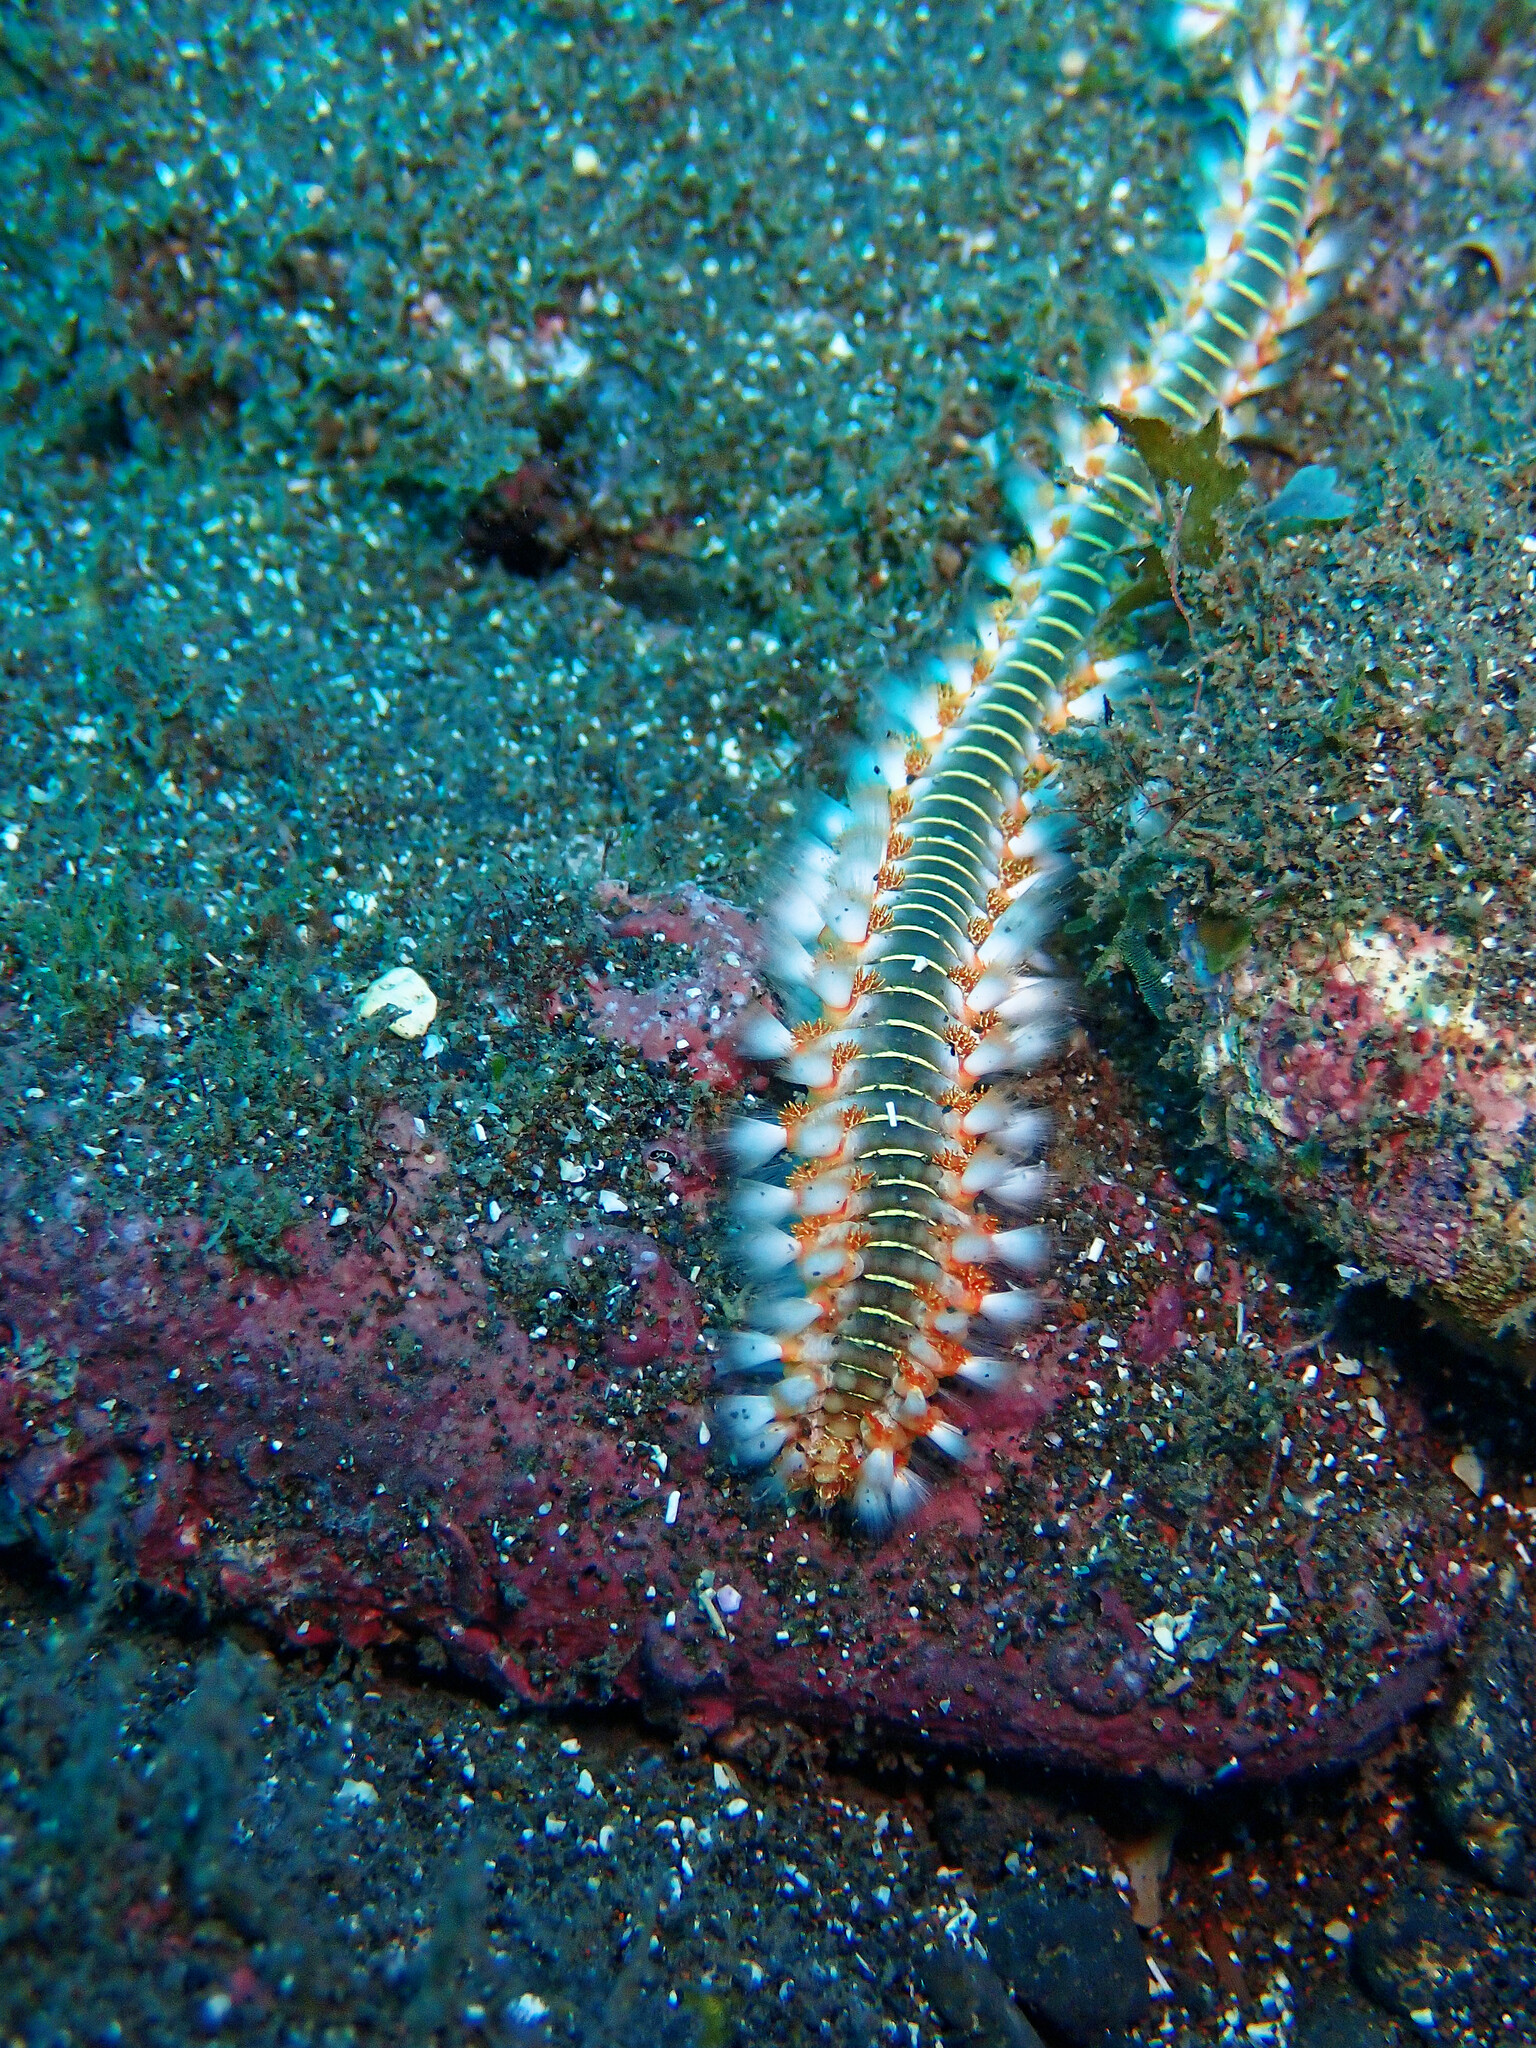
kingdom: Animalia
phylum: Annelida
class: Polychaeta
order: Amphinomida
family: Amphinomidae
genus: Hermodice
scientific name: Hermodice carunculata
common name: Bearded fireworm
